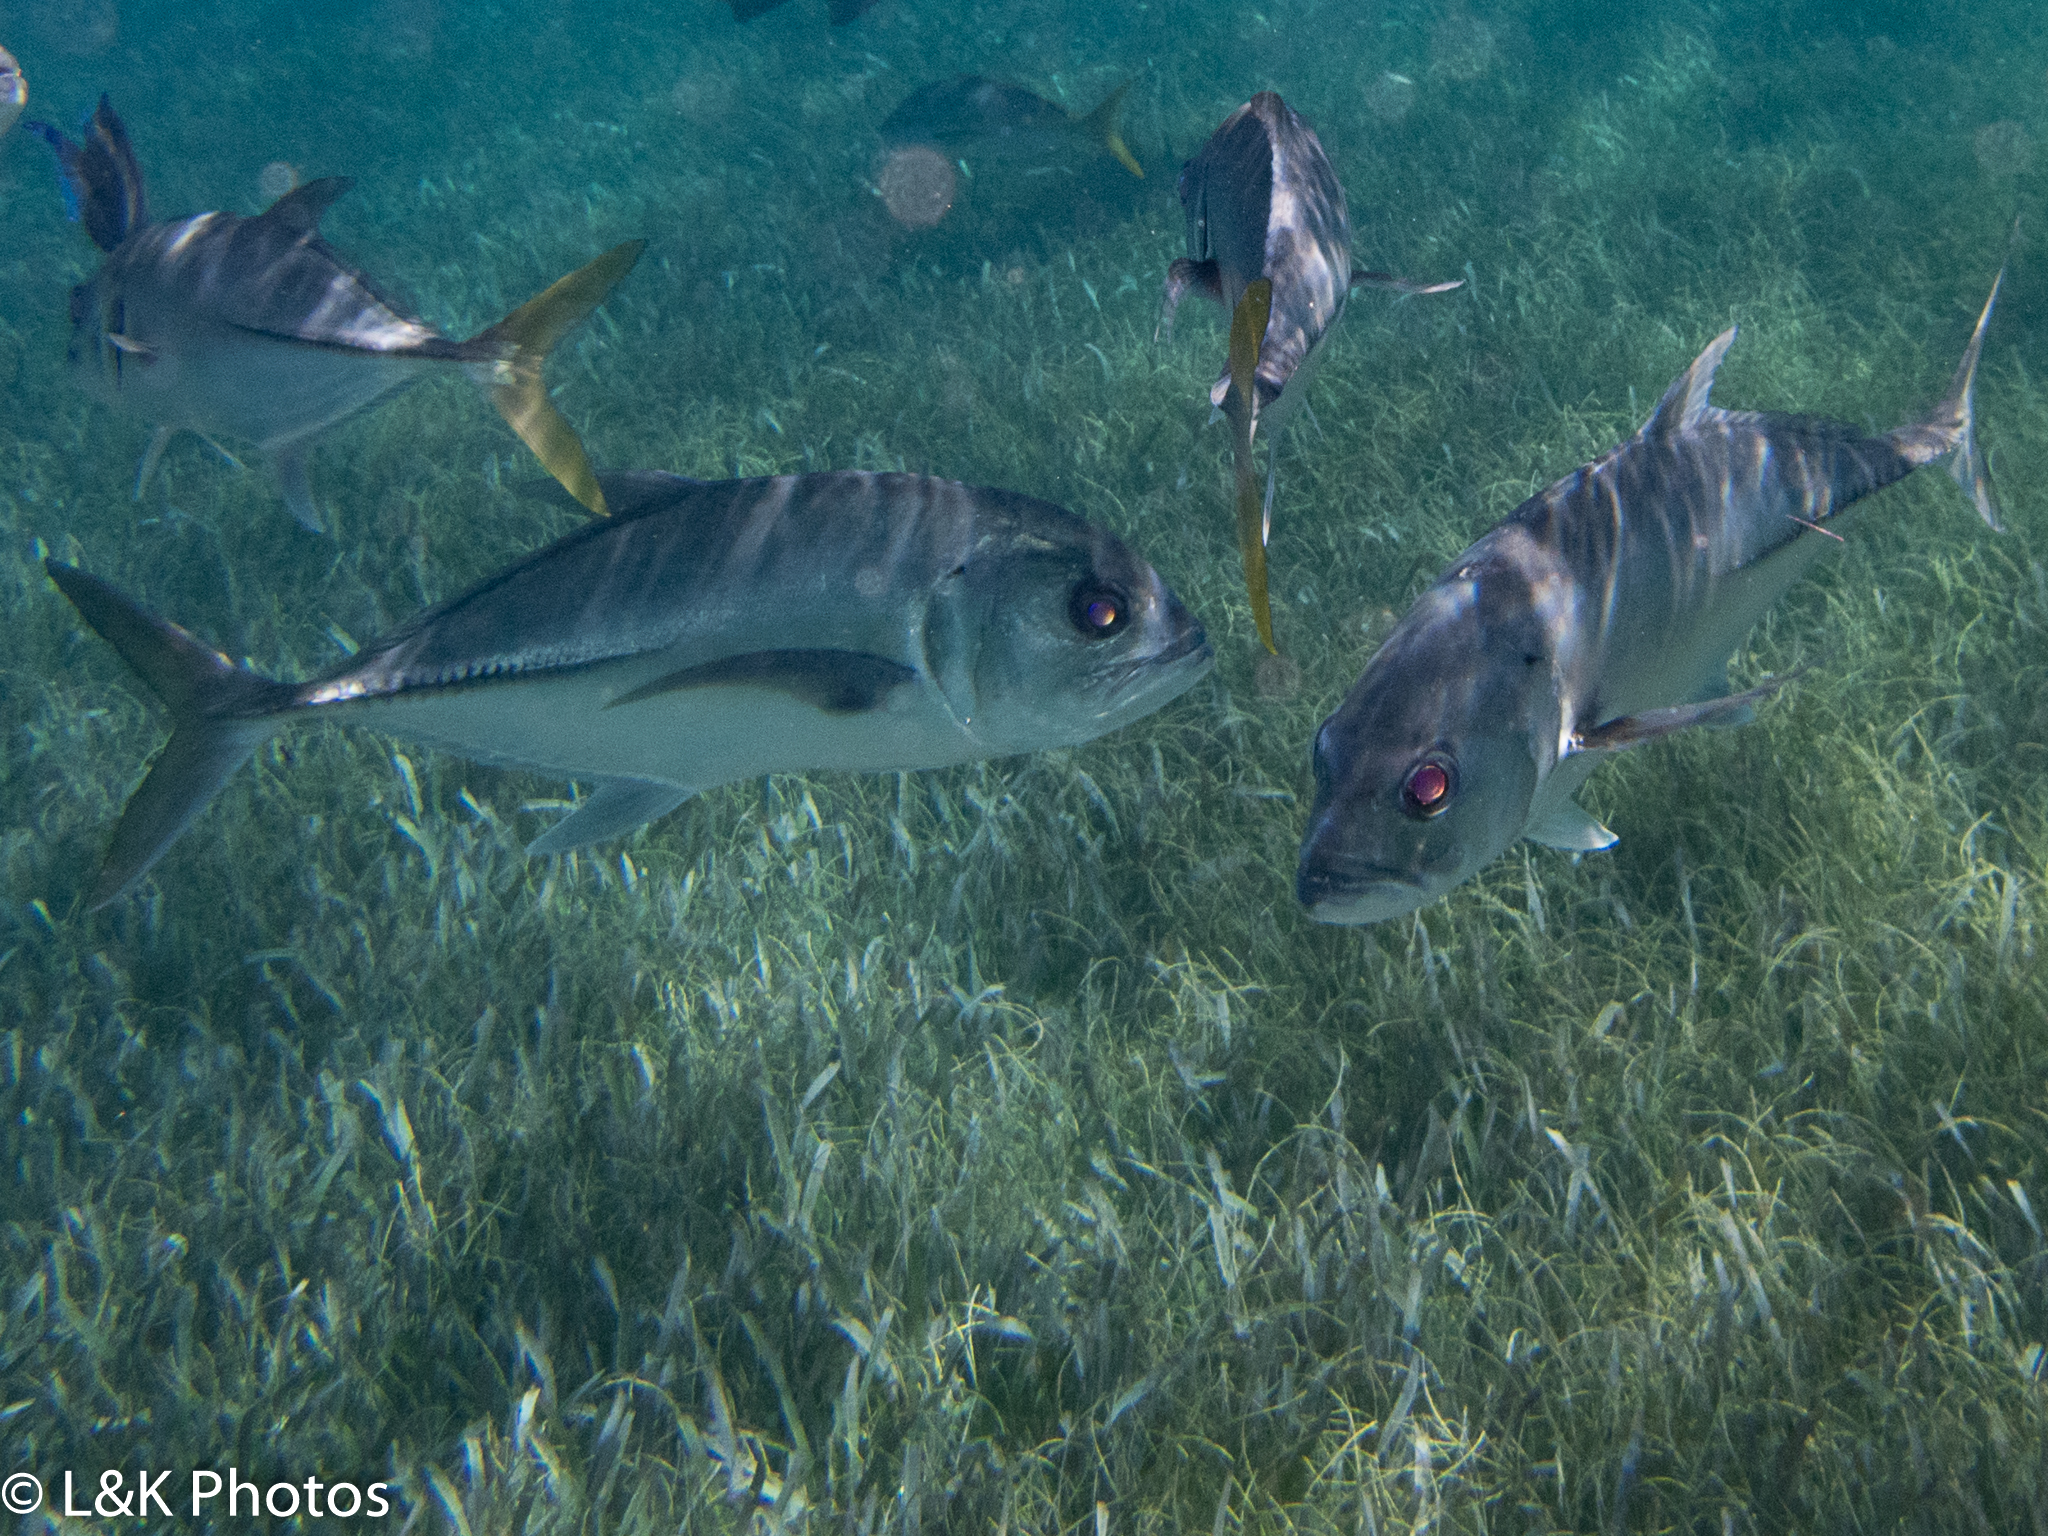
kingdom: Animalia
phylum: Chordata
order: Perciformes
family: Carangidae
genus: Caranx
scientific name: Caranx latus
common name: Horse eye jack
